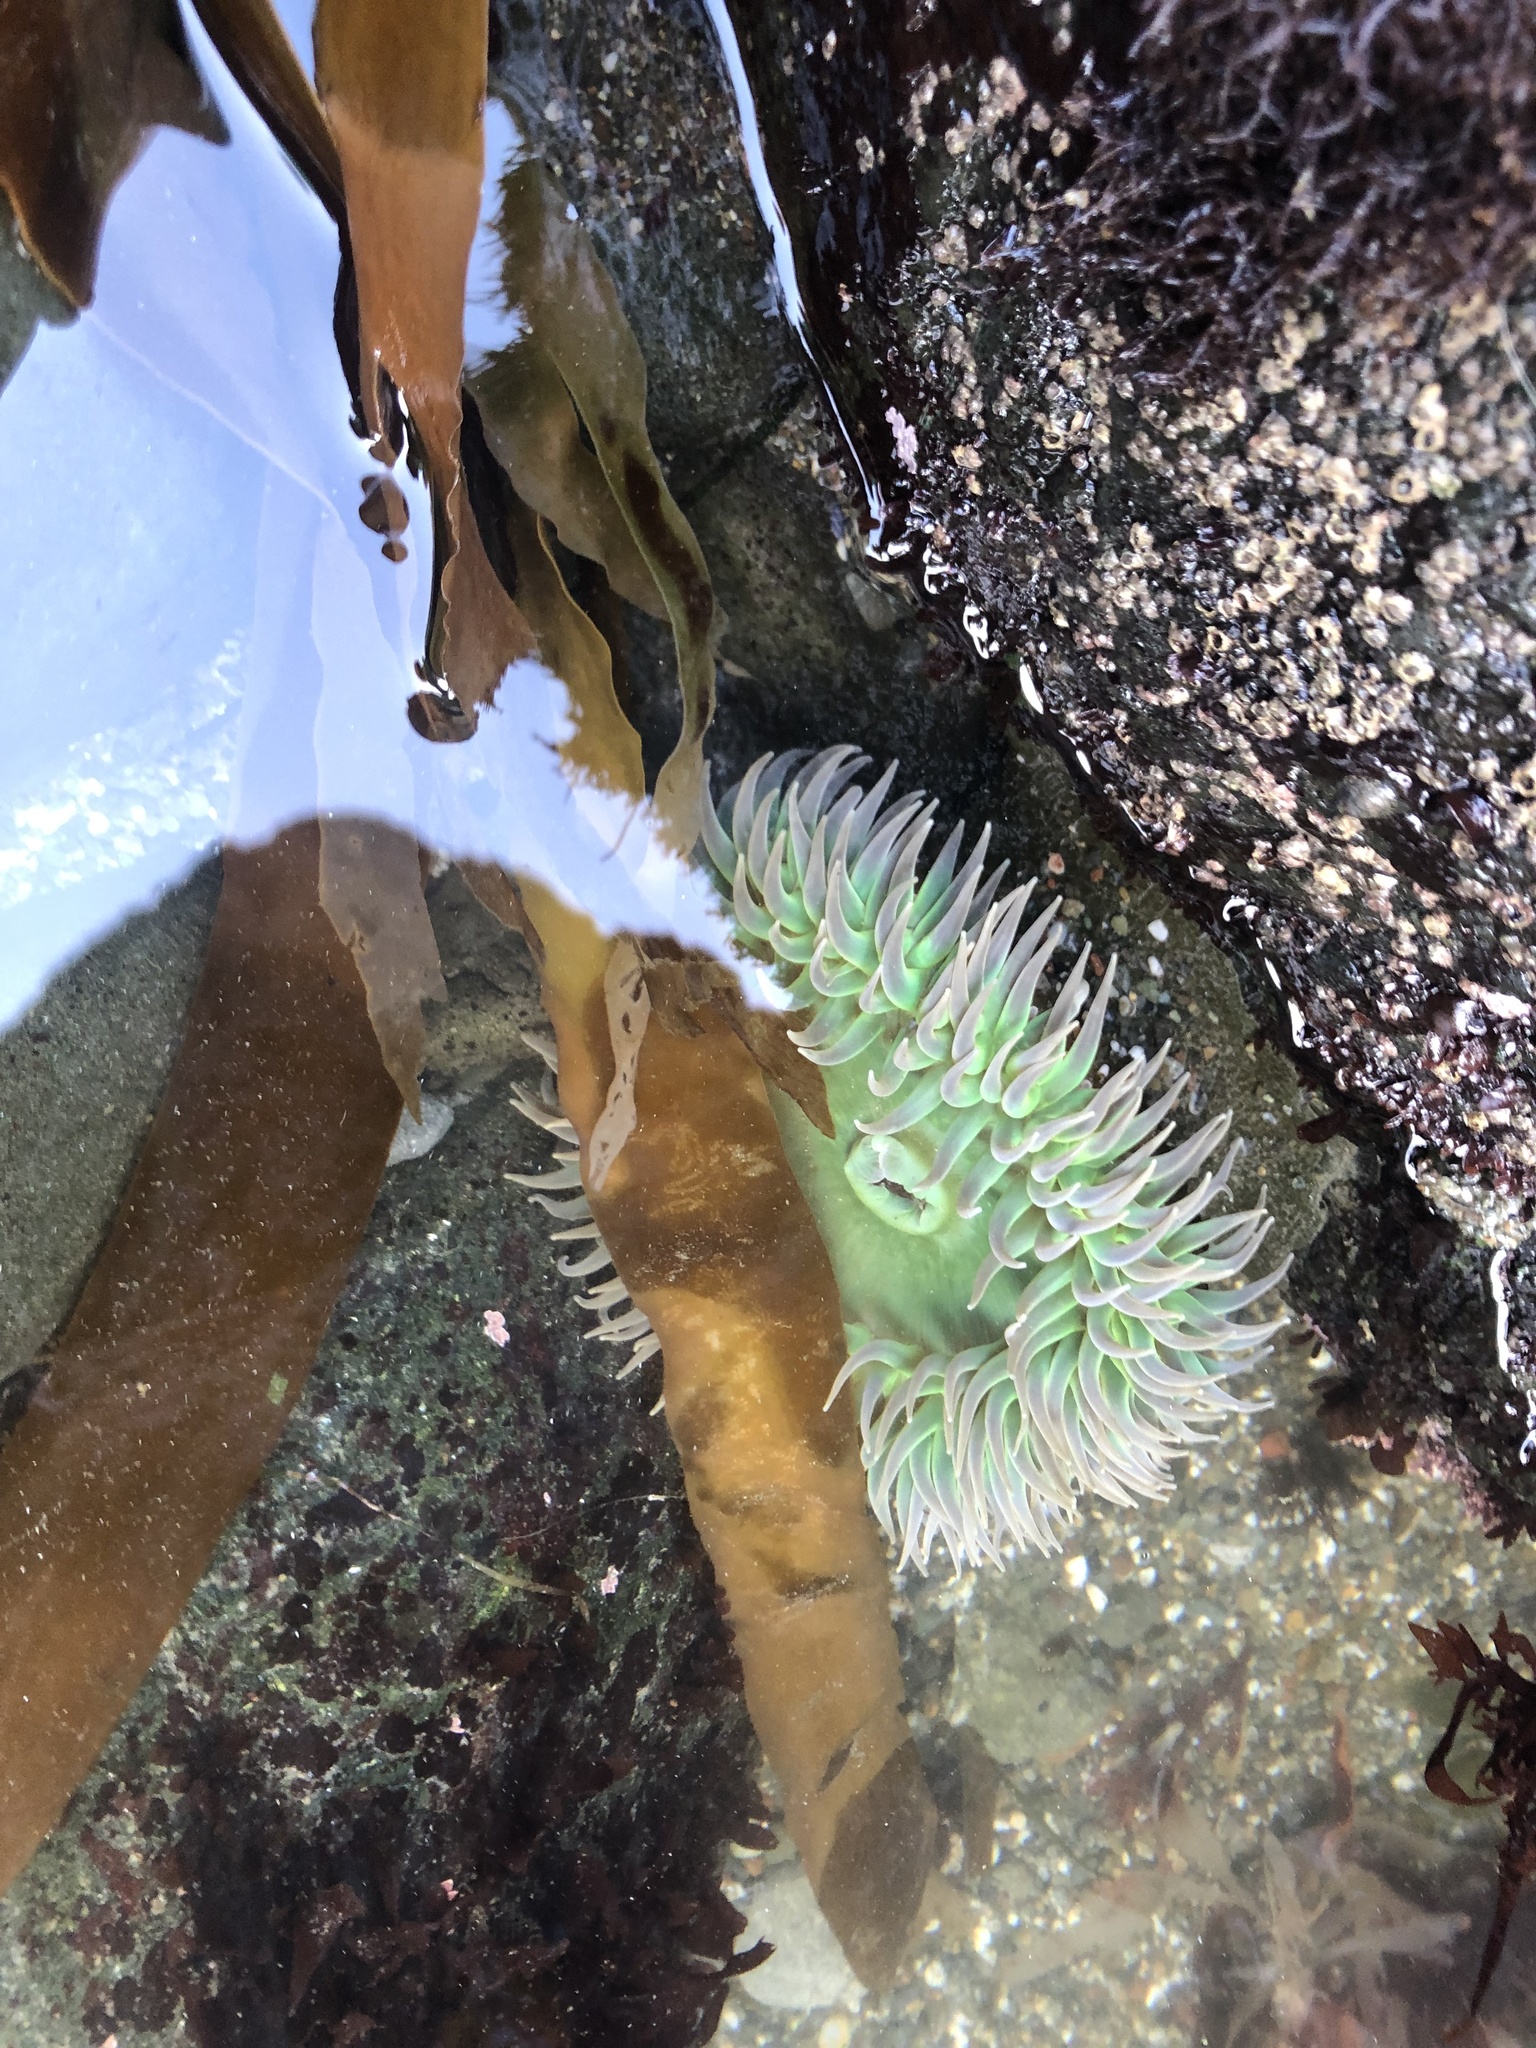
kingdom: Animalia
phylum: Cnidaria
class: Anthozoa
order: Actiniaria
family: Actiniidae
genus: Anthopleura
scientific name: Anthopleura xanthogrammica
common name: Giant green anemone
